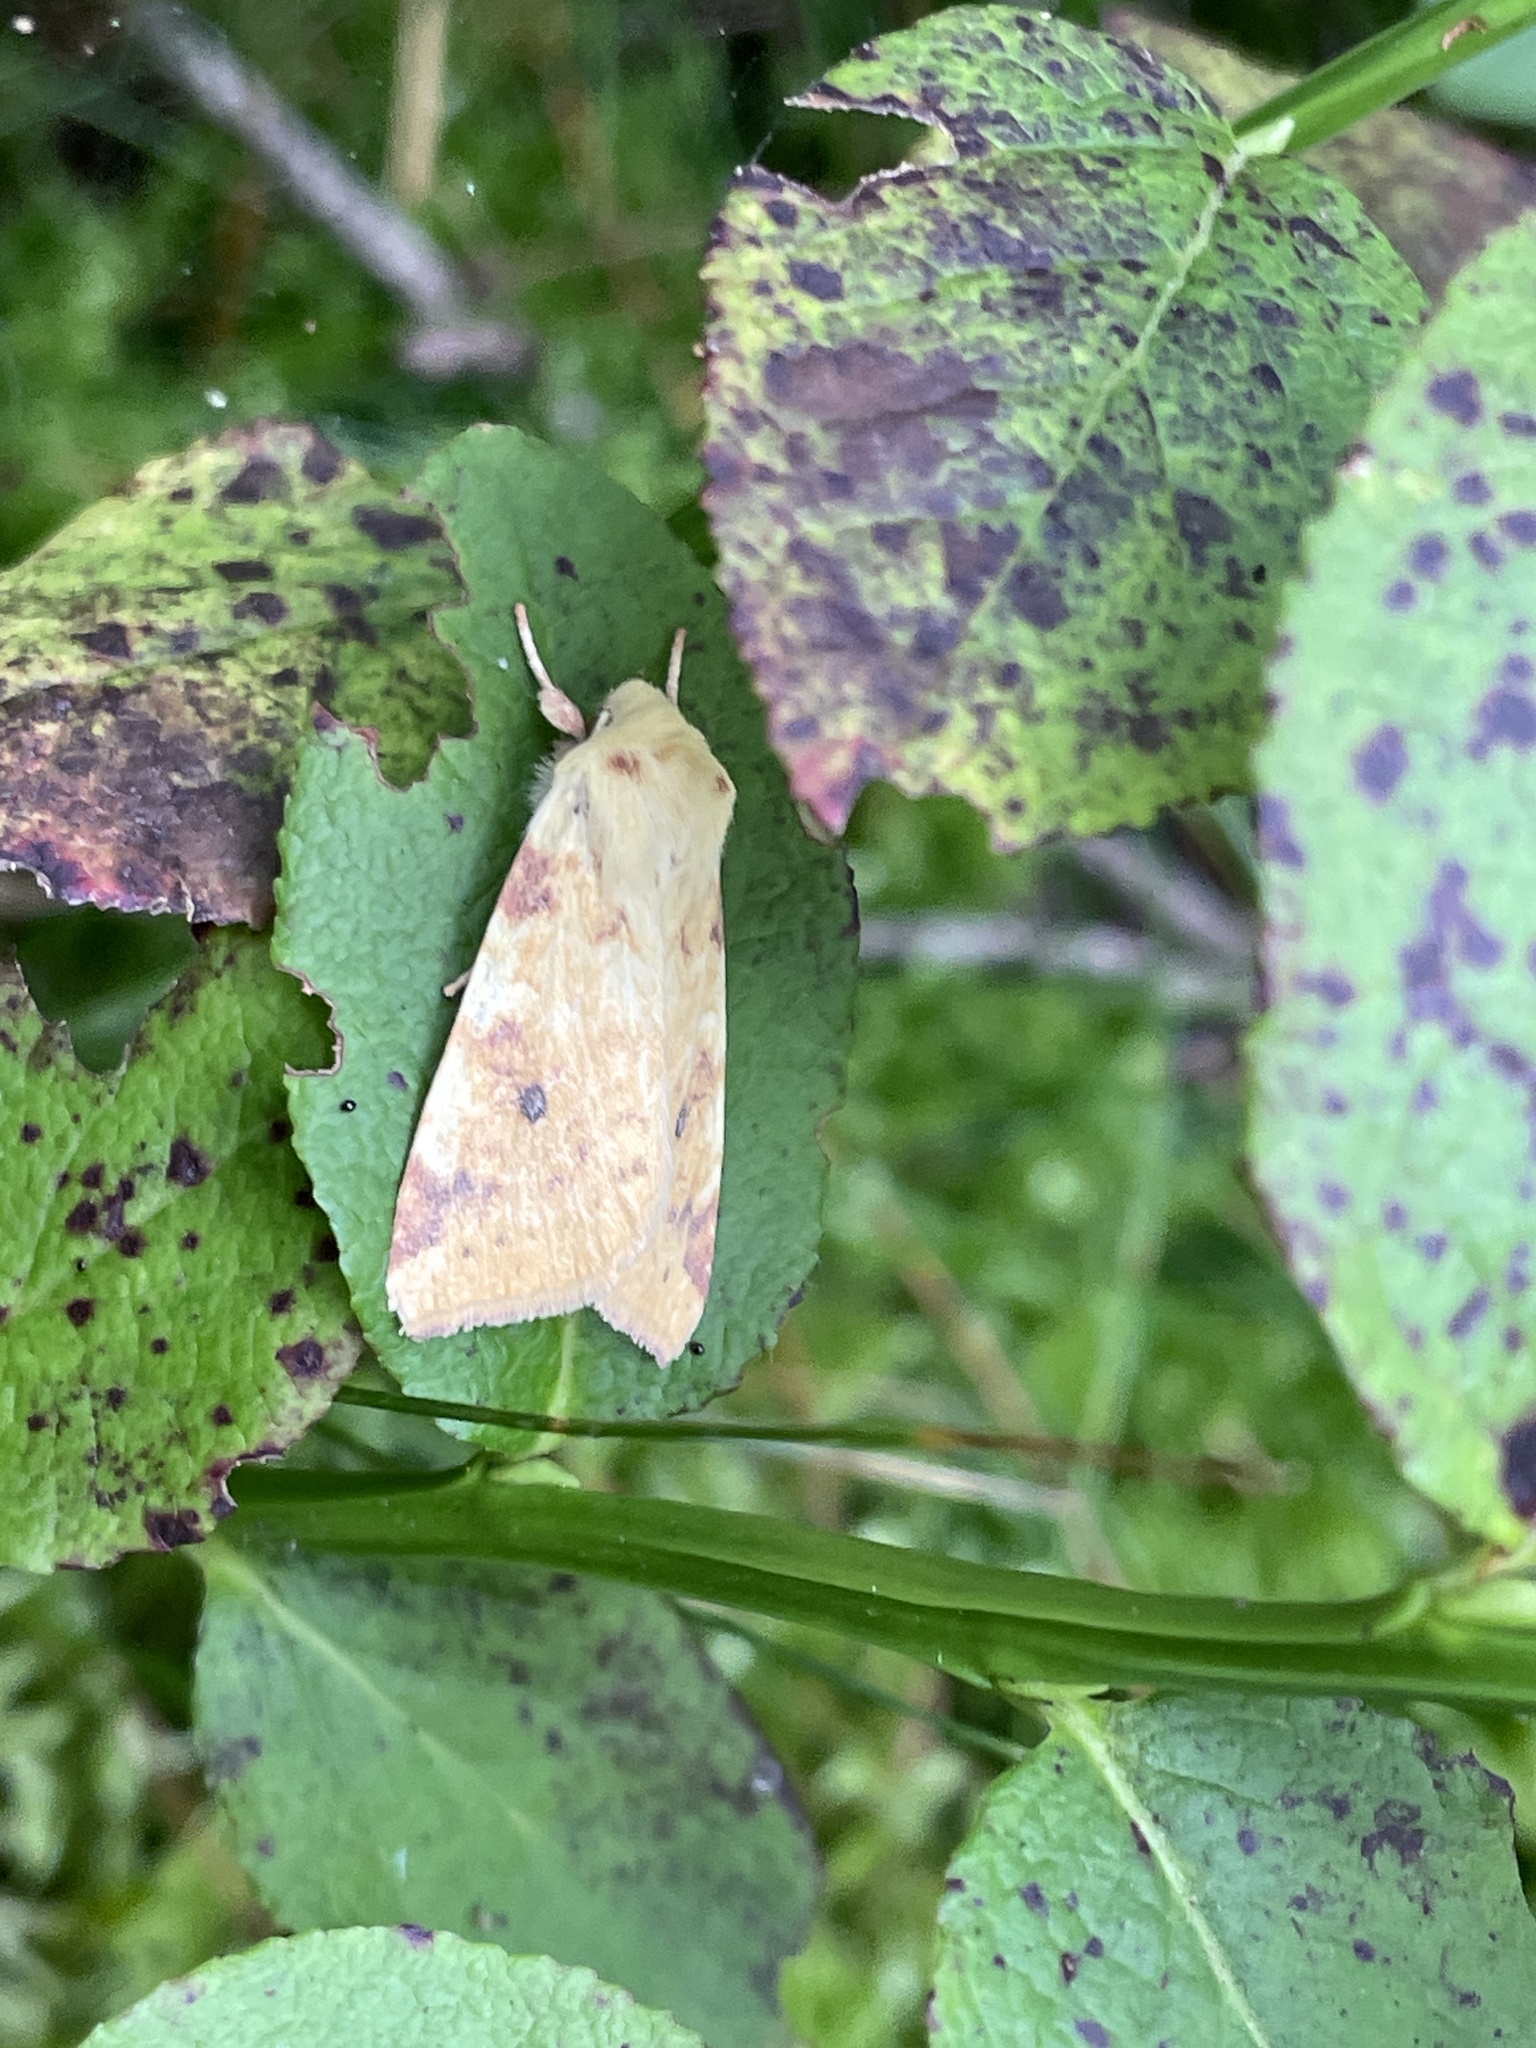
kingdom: Animalia
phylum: Arthropoda
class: Insecta
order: Lepidoptera
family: Noctuidae
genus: Xanthia
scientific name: Xanthia icteritia
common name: The sallow
